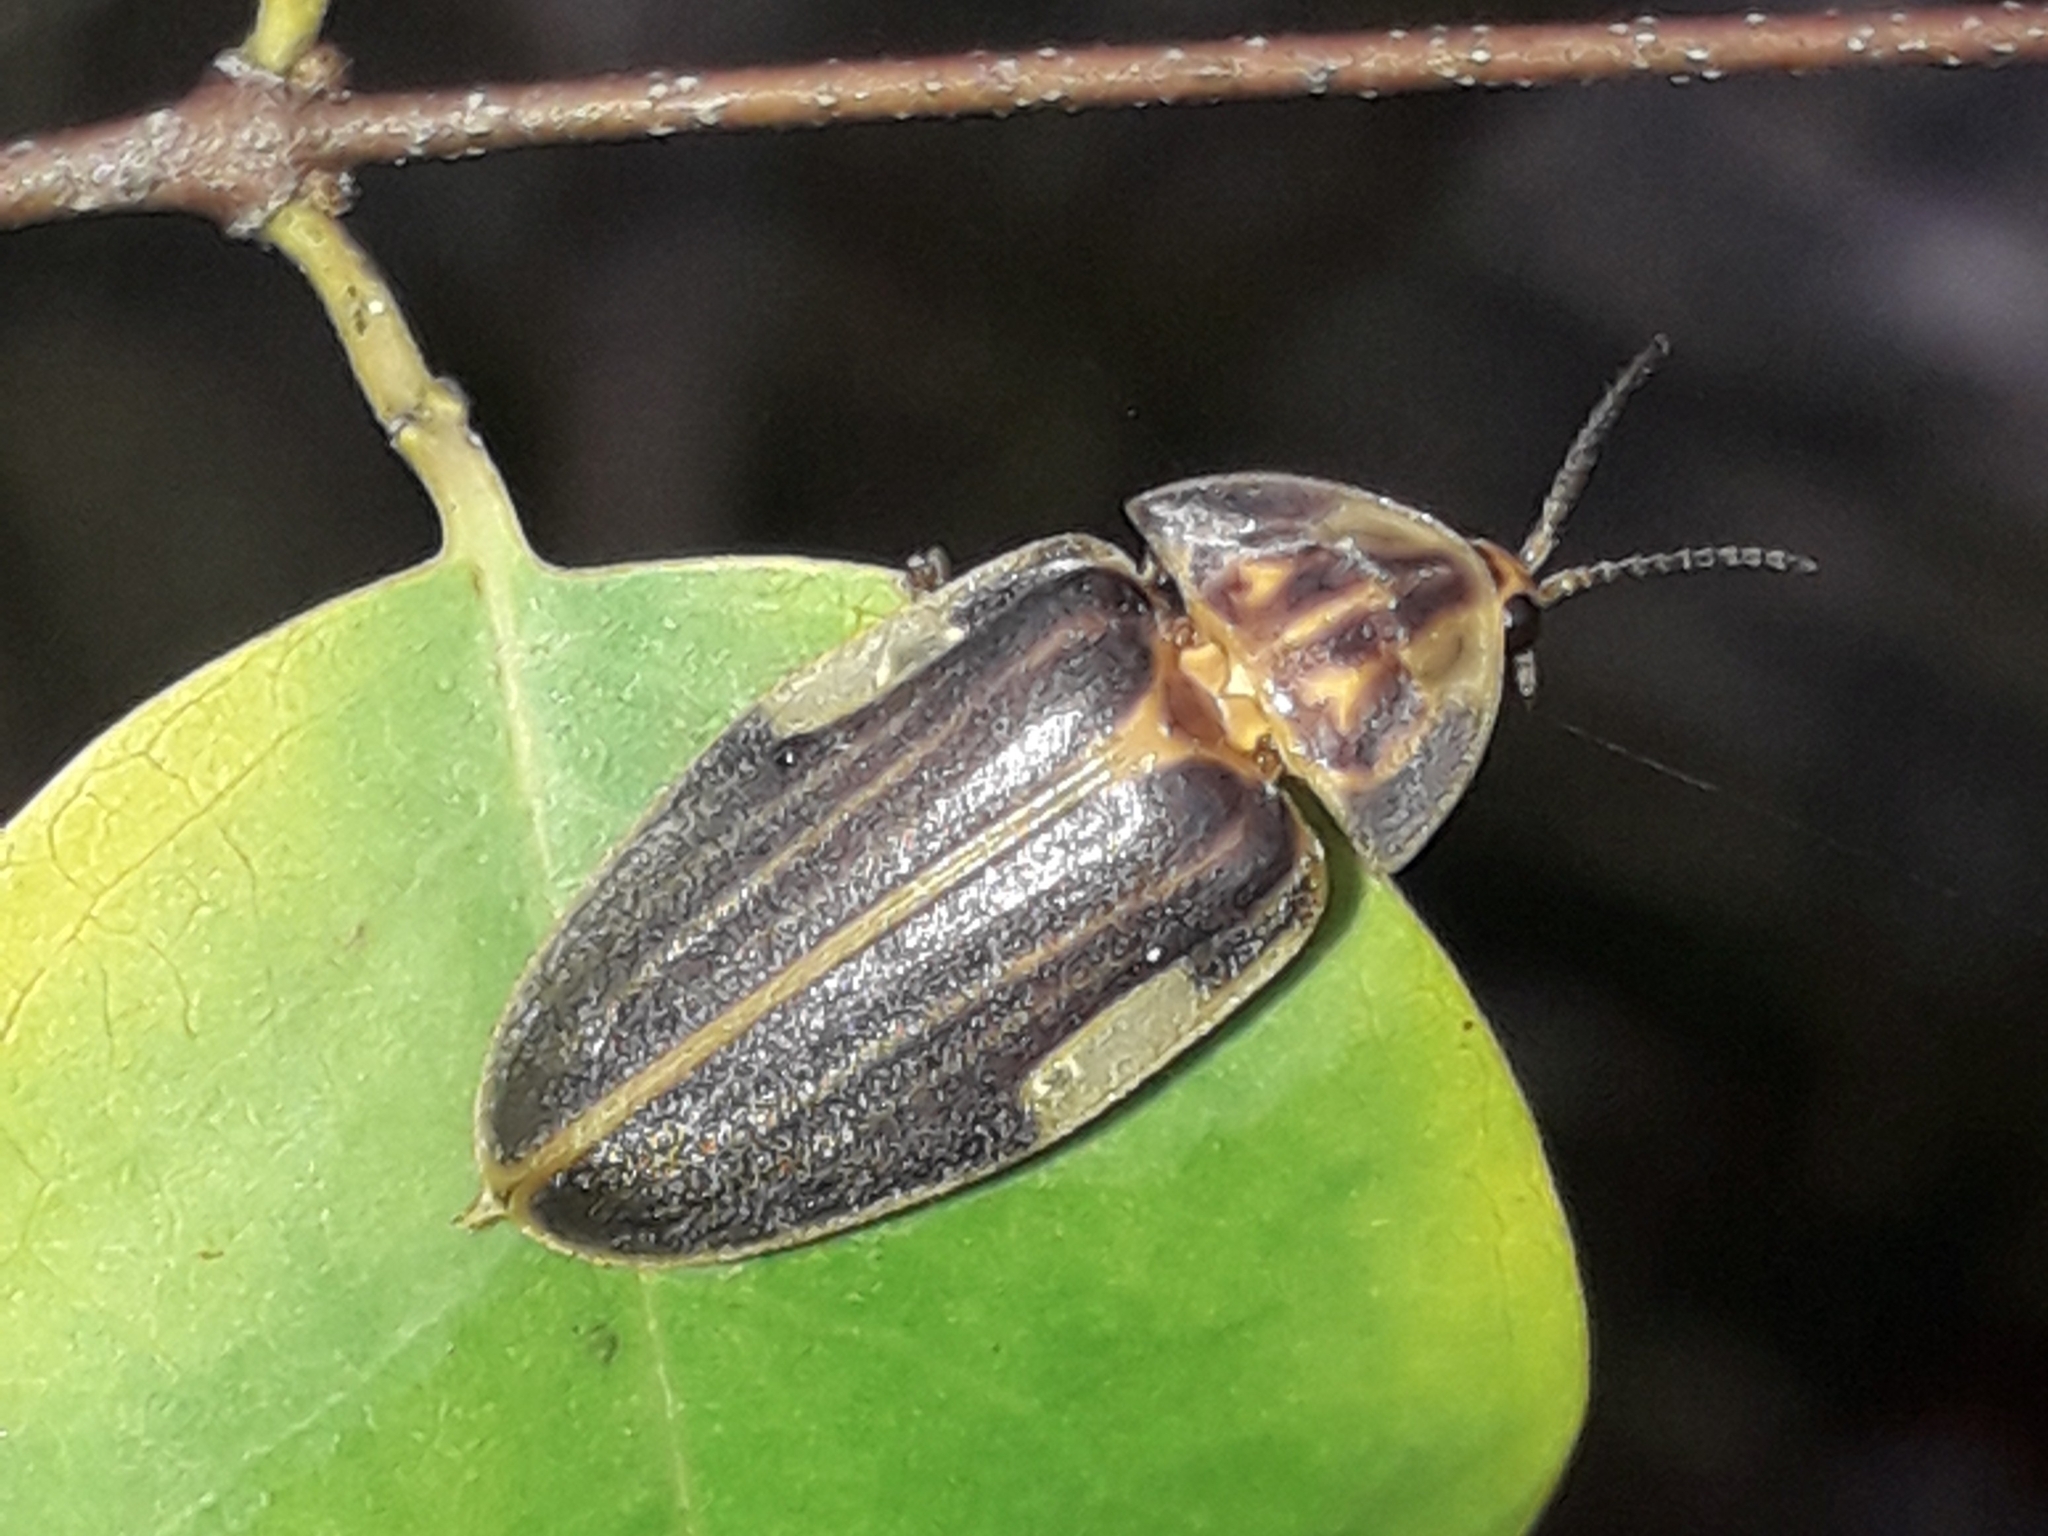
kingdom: Animalia
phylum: Arthropoda
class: Insecta
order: Coleoptera
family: Lampyridae
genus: Aspisoma
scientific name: Aspisoma ignitum
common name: Dixon's striped firefly
